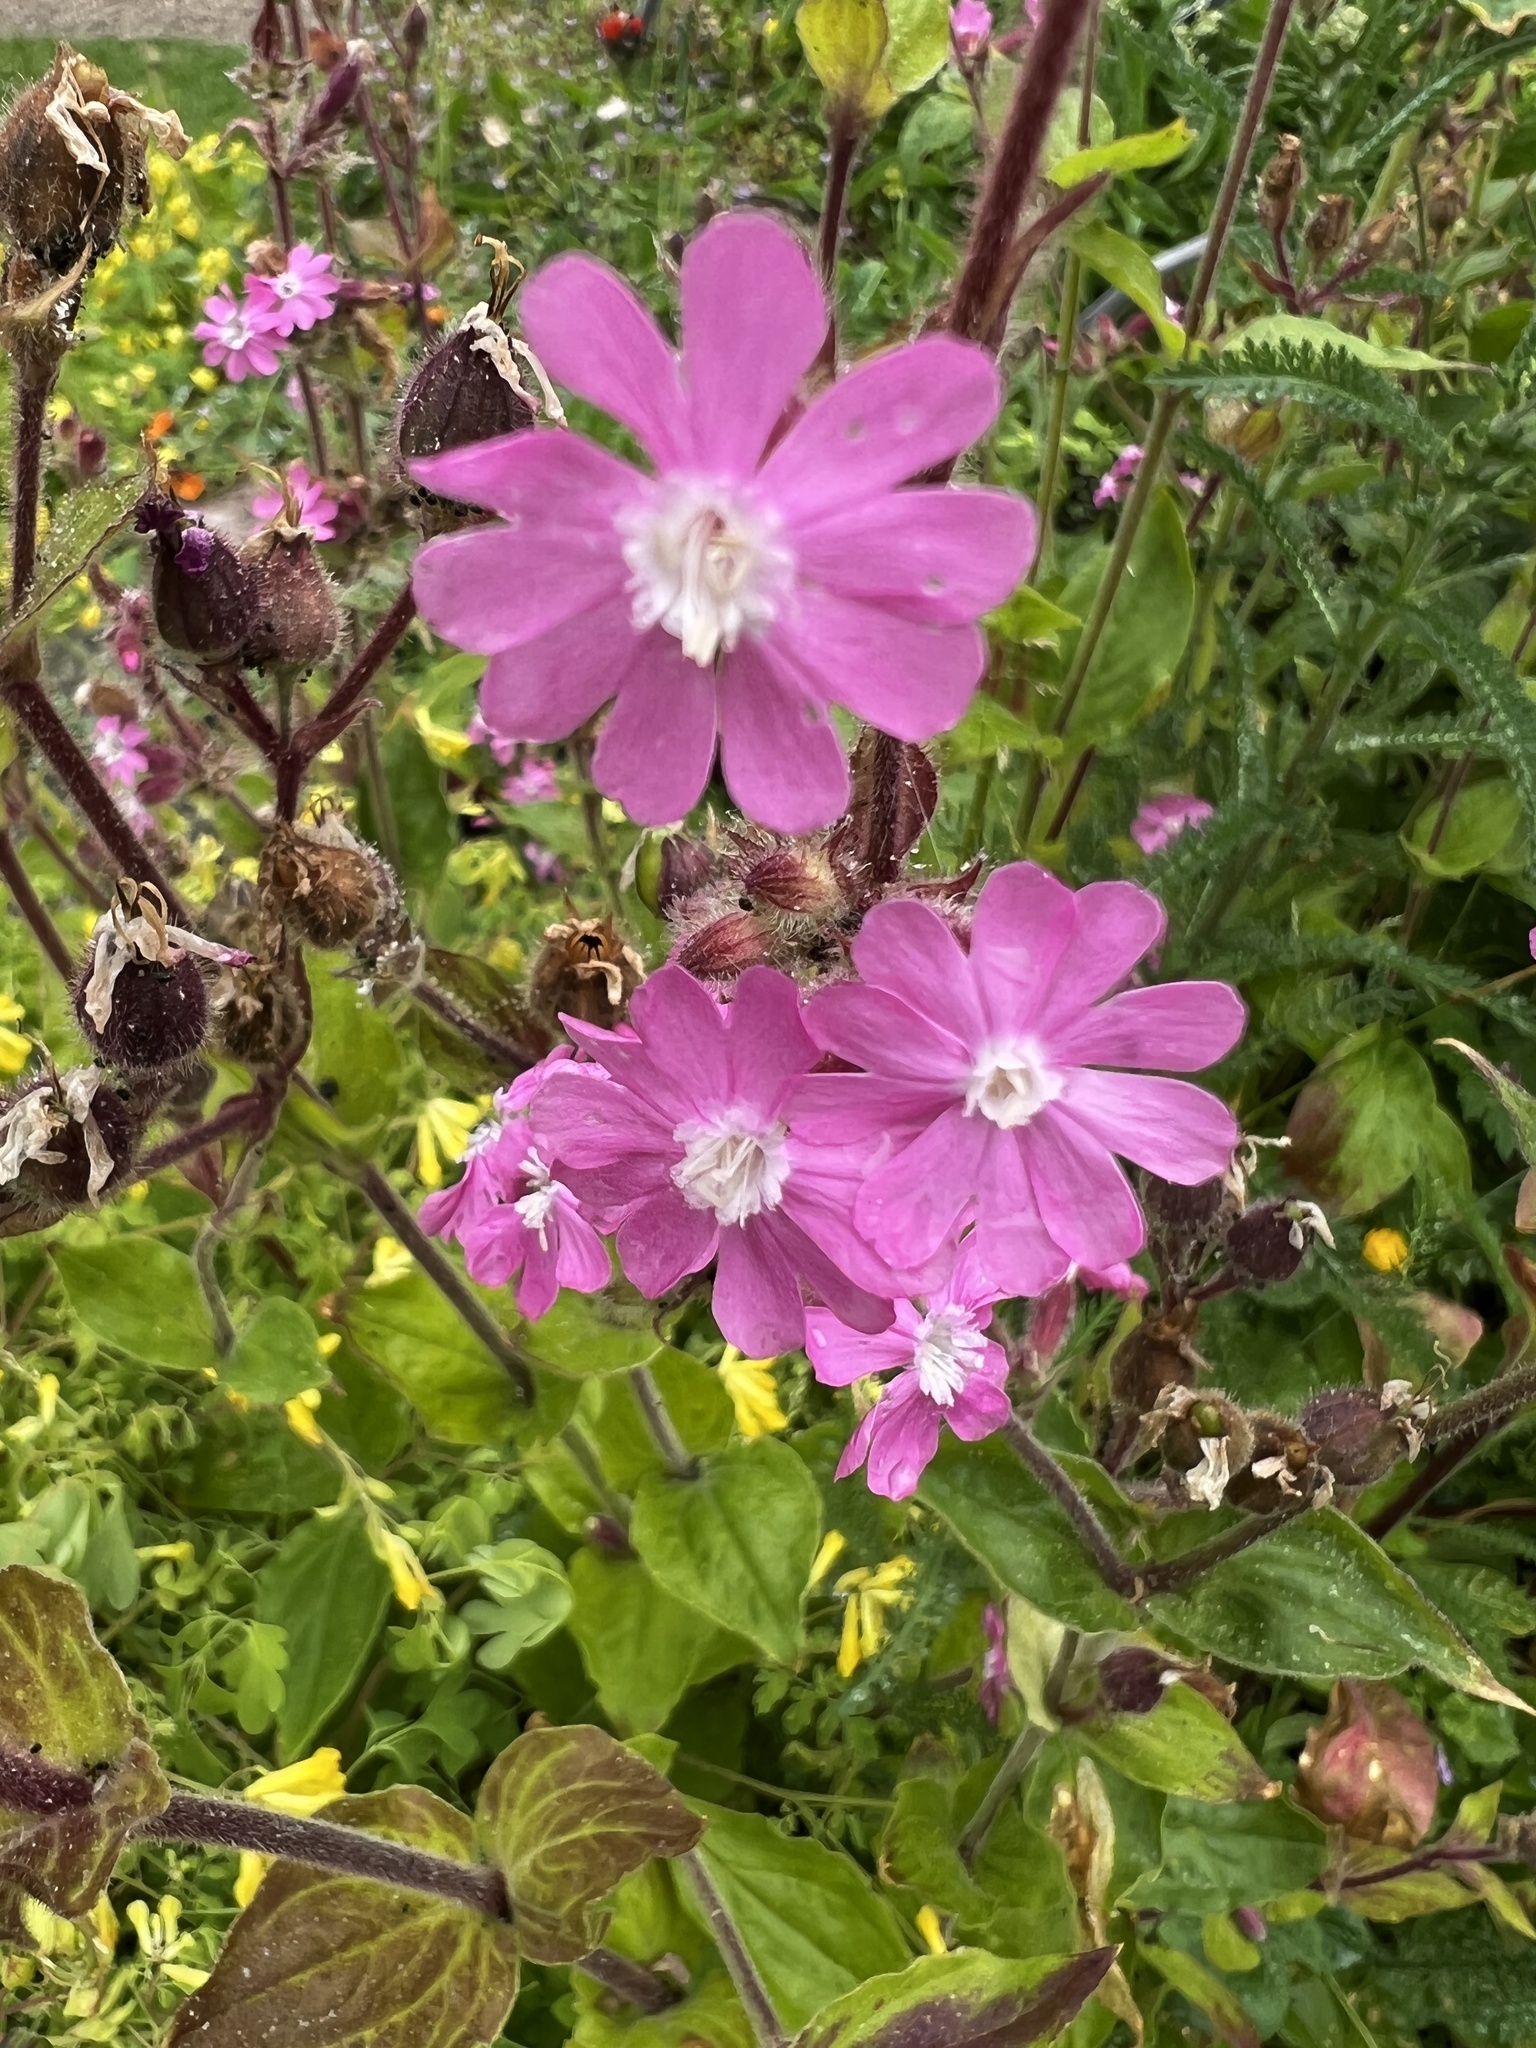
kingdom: Plantae
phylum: Tracheophyta
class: Magnoliopsida
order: Caryophyllales
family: Caryophyllaceae
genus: Silene
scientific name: Silene dioica
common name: Red campion
